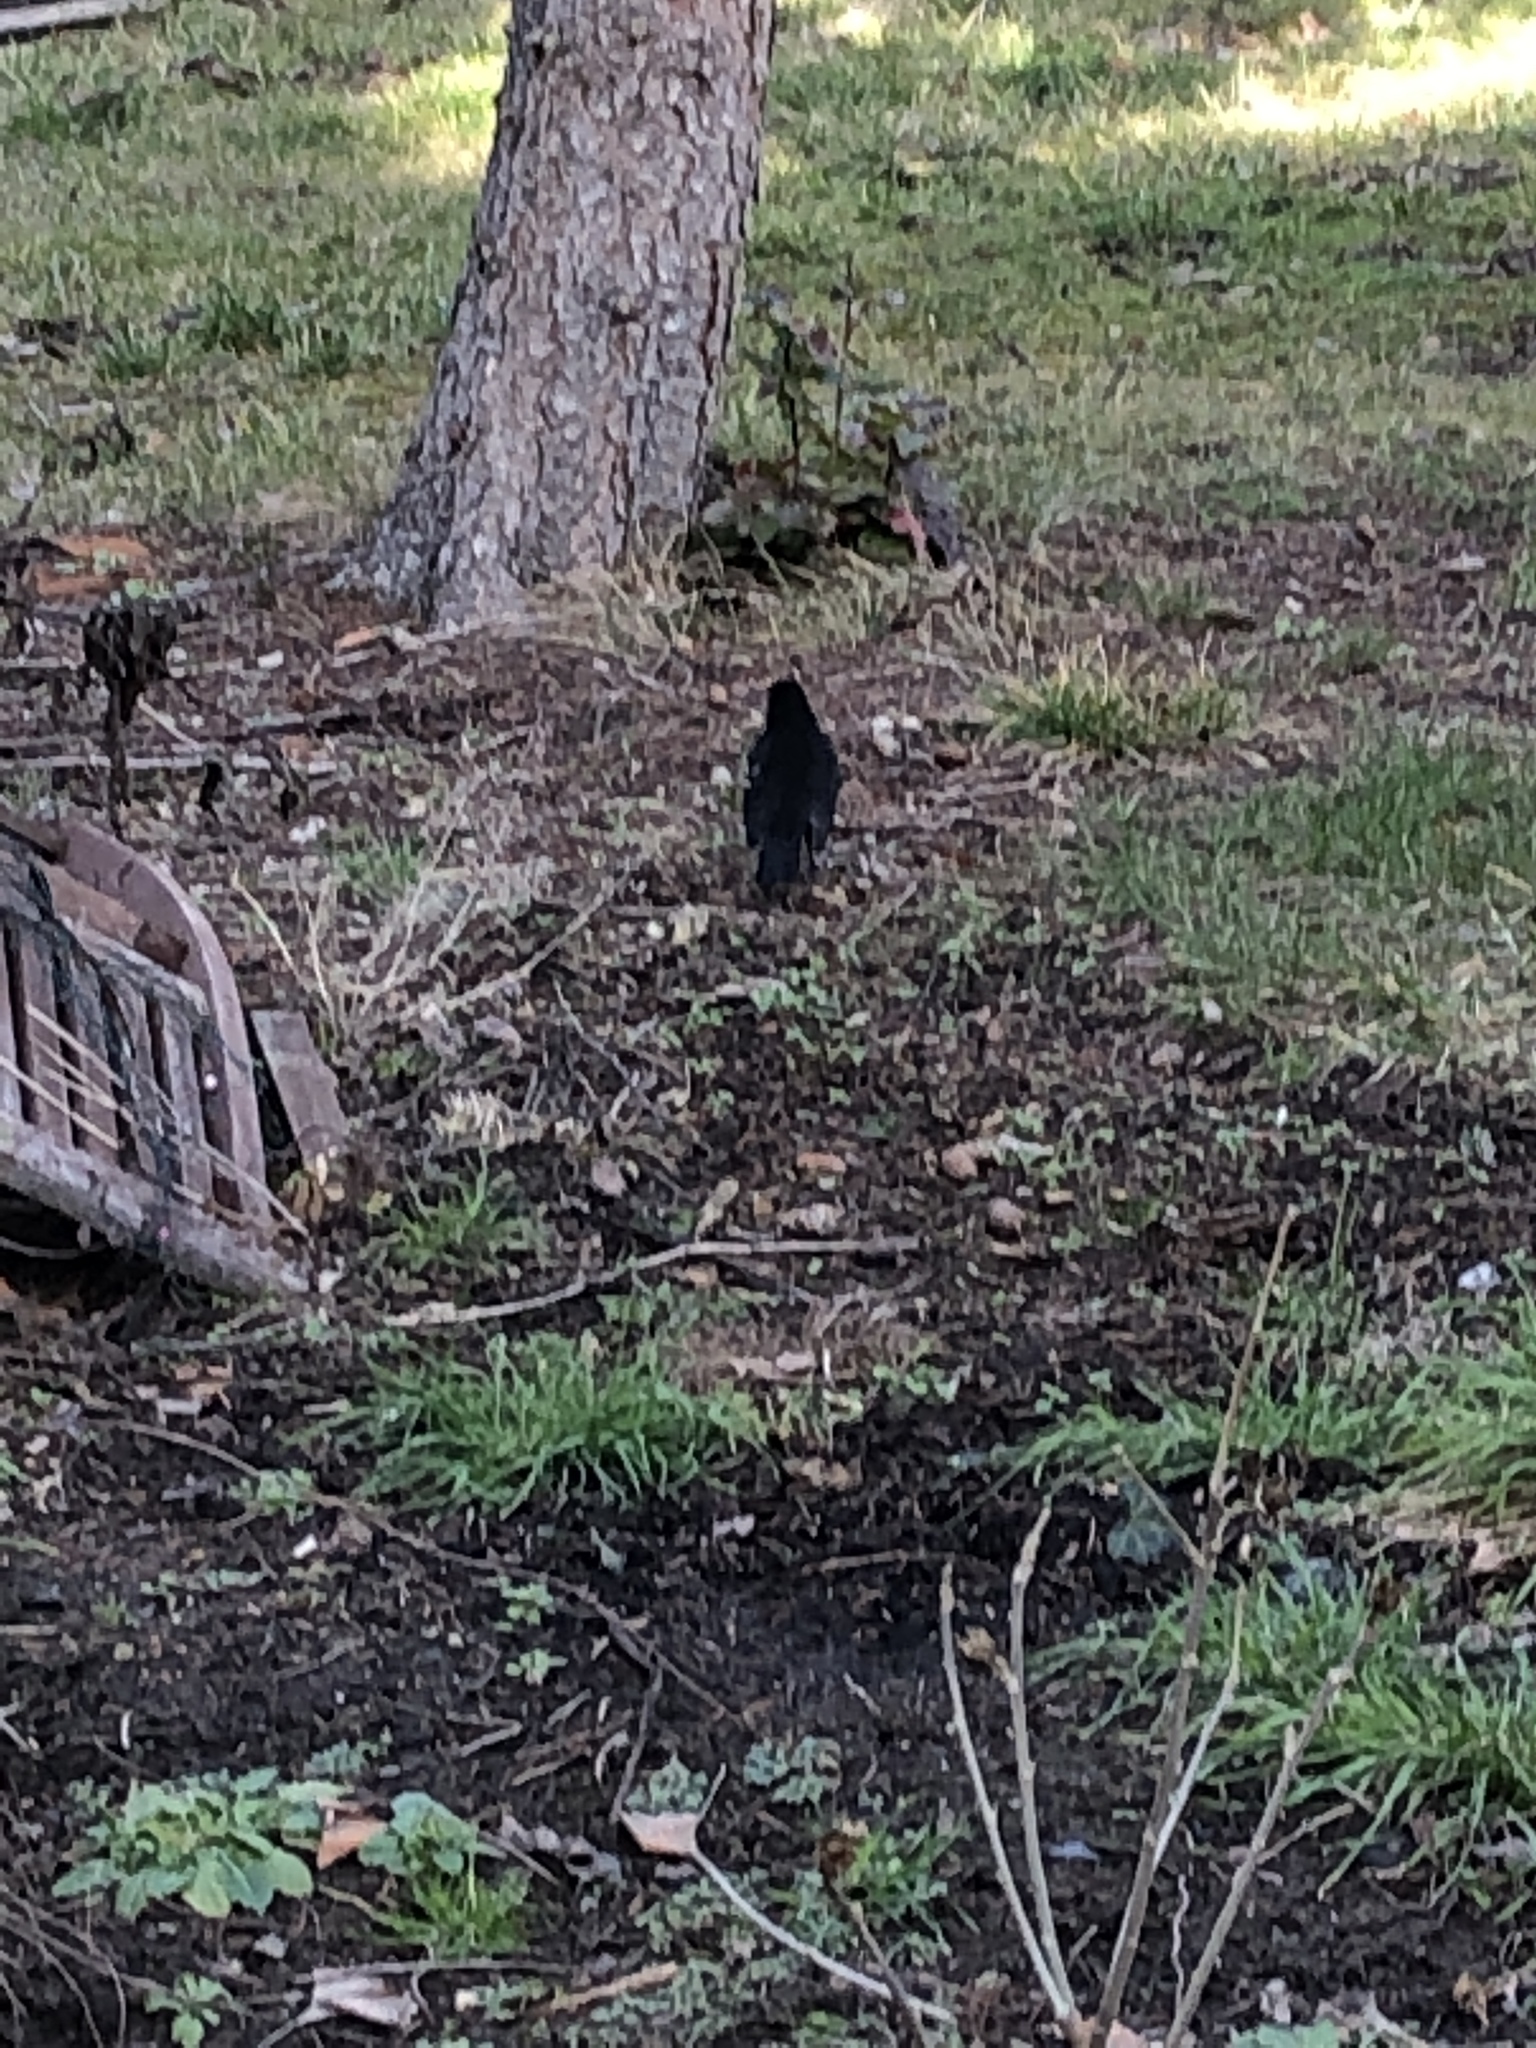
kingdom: Animalia
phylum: Chordata
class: Aves
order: Passeriformes
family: Turdidae
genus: Turdus
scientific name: Turdus merula
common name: Common blackbird
